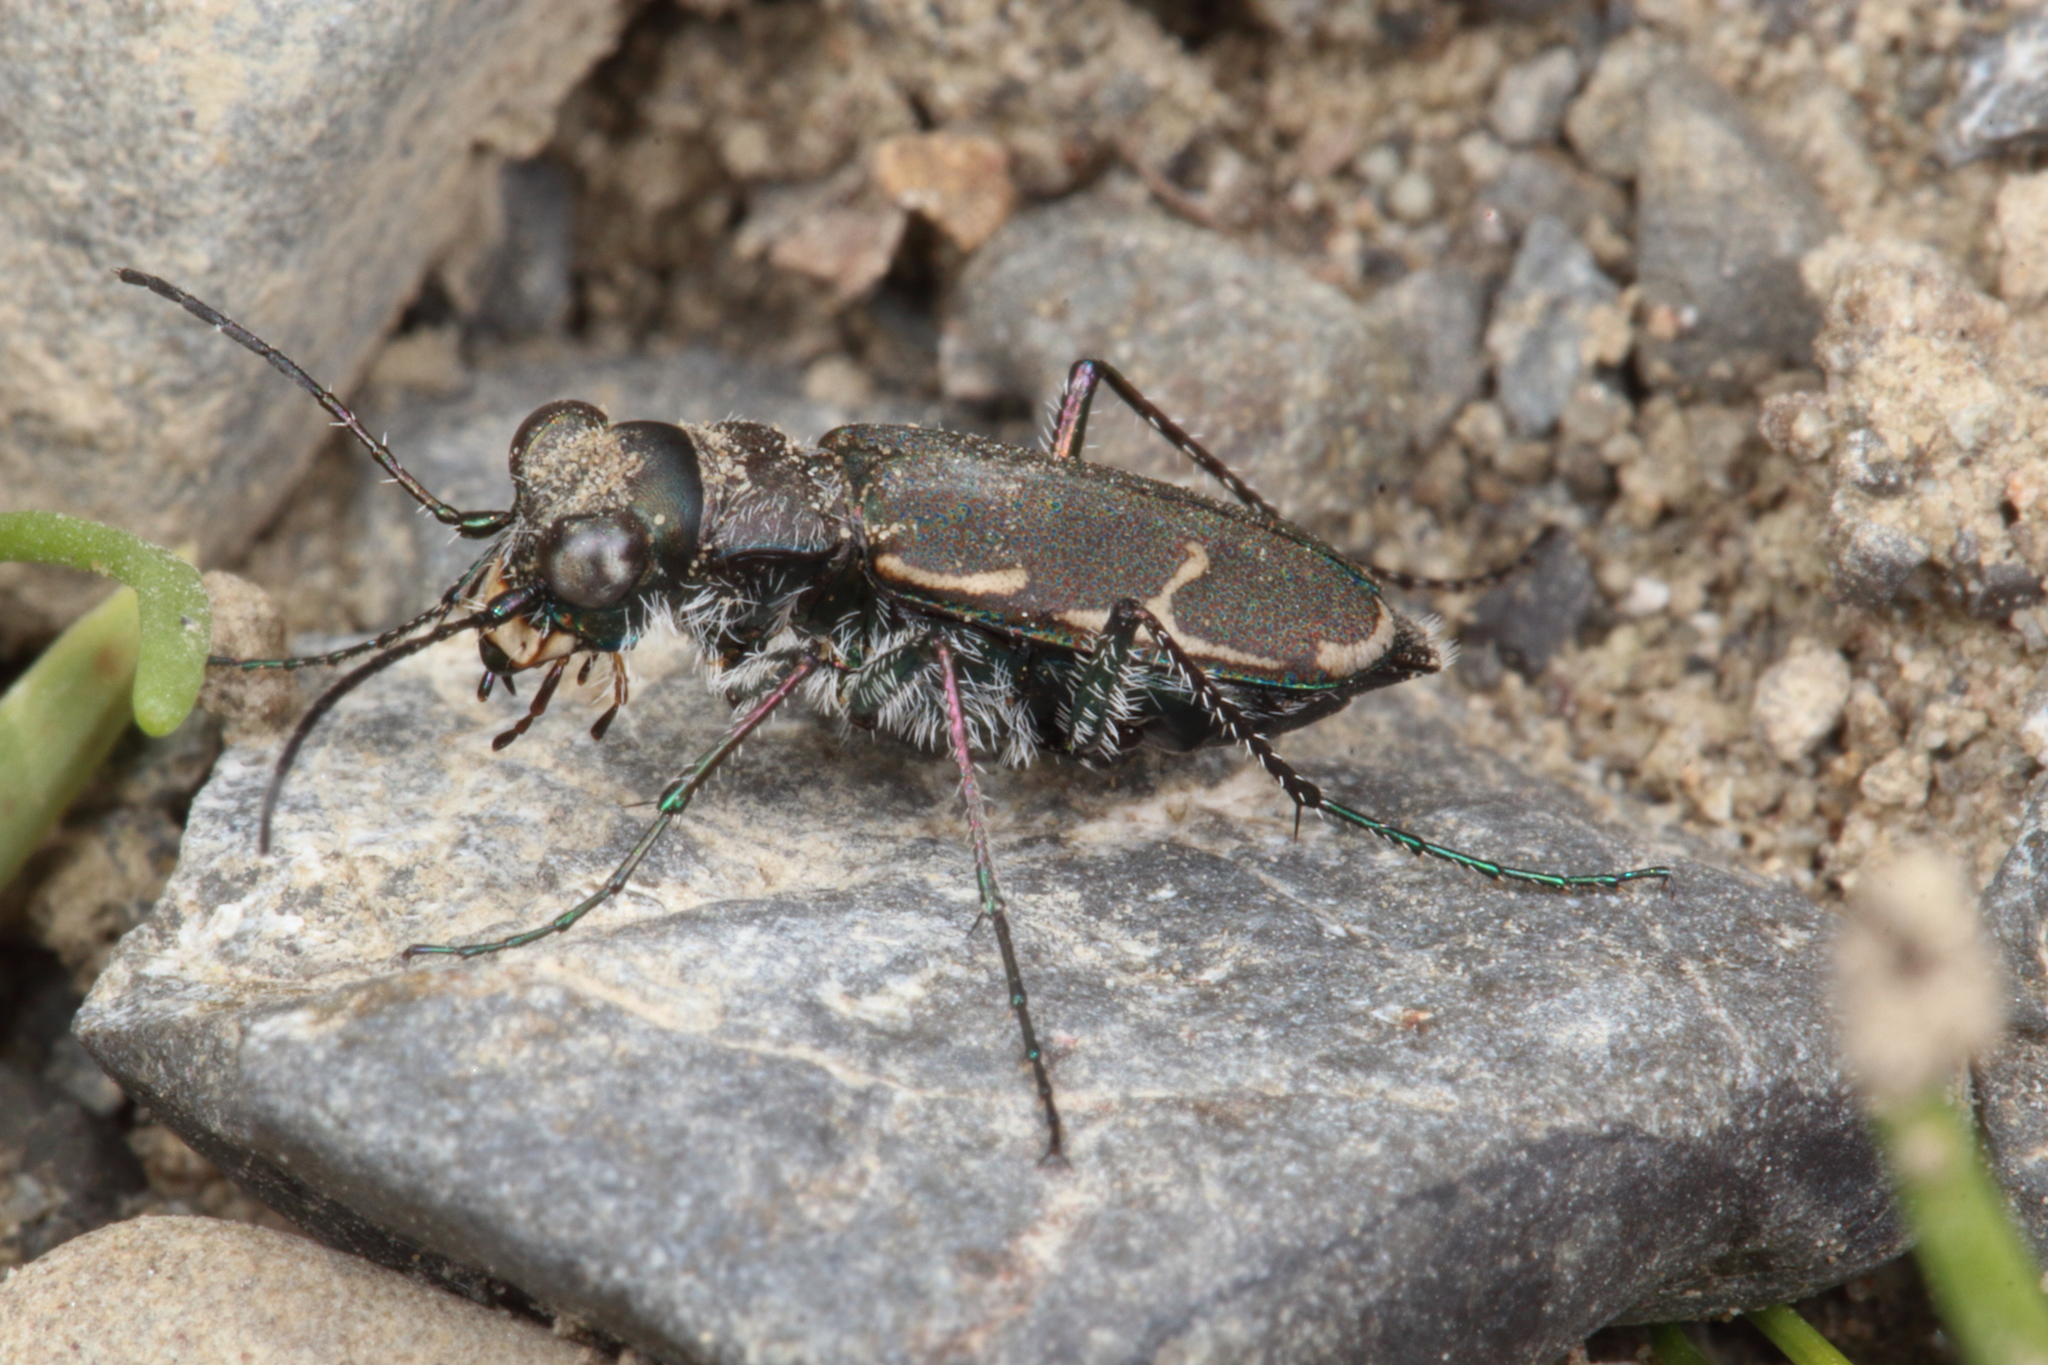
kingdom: Animalia
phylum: Arthropoda
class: Insecta
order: Coleoptera
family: Carabidae
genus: Zecicindela
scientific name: Zecicindela austromontana
